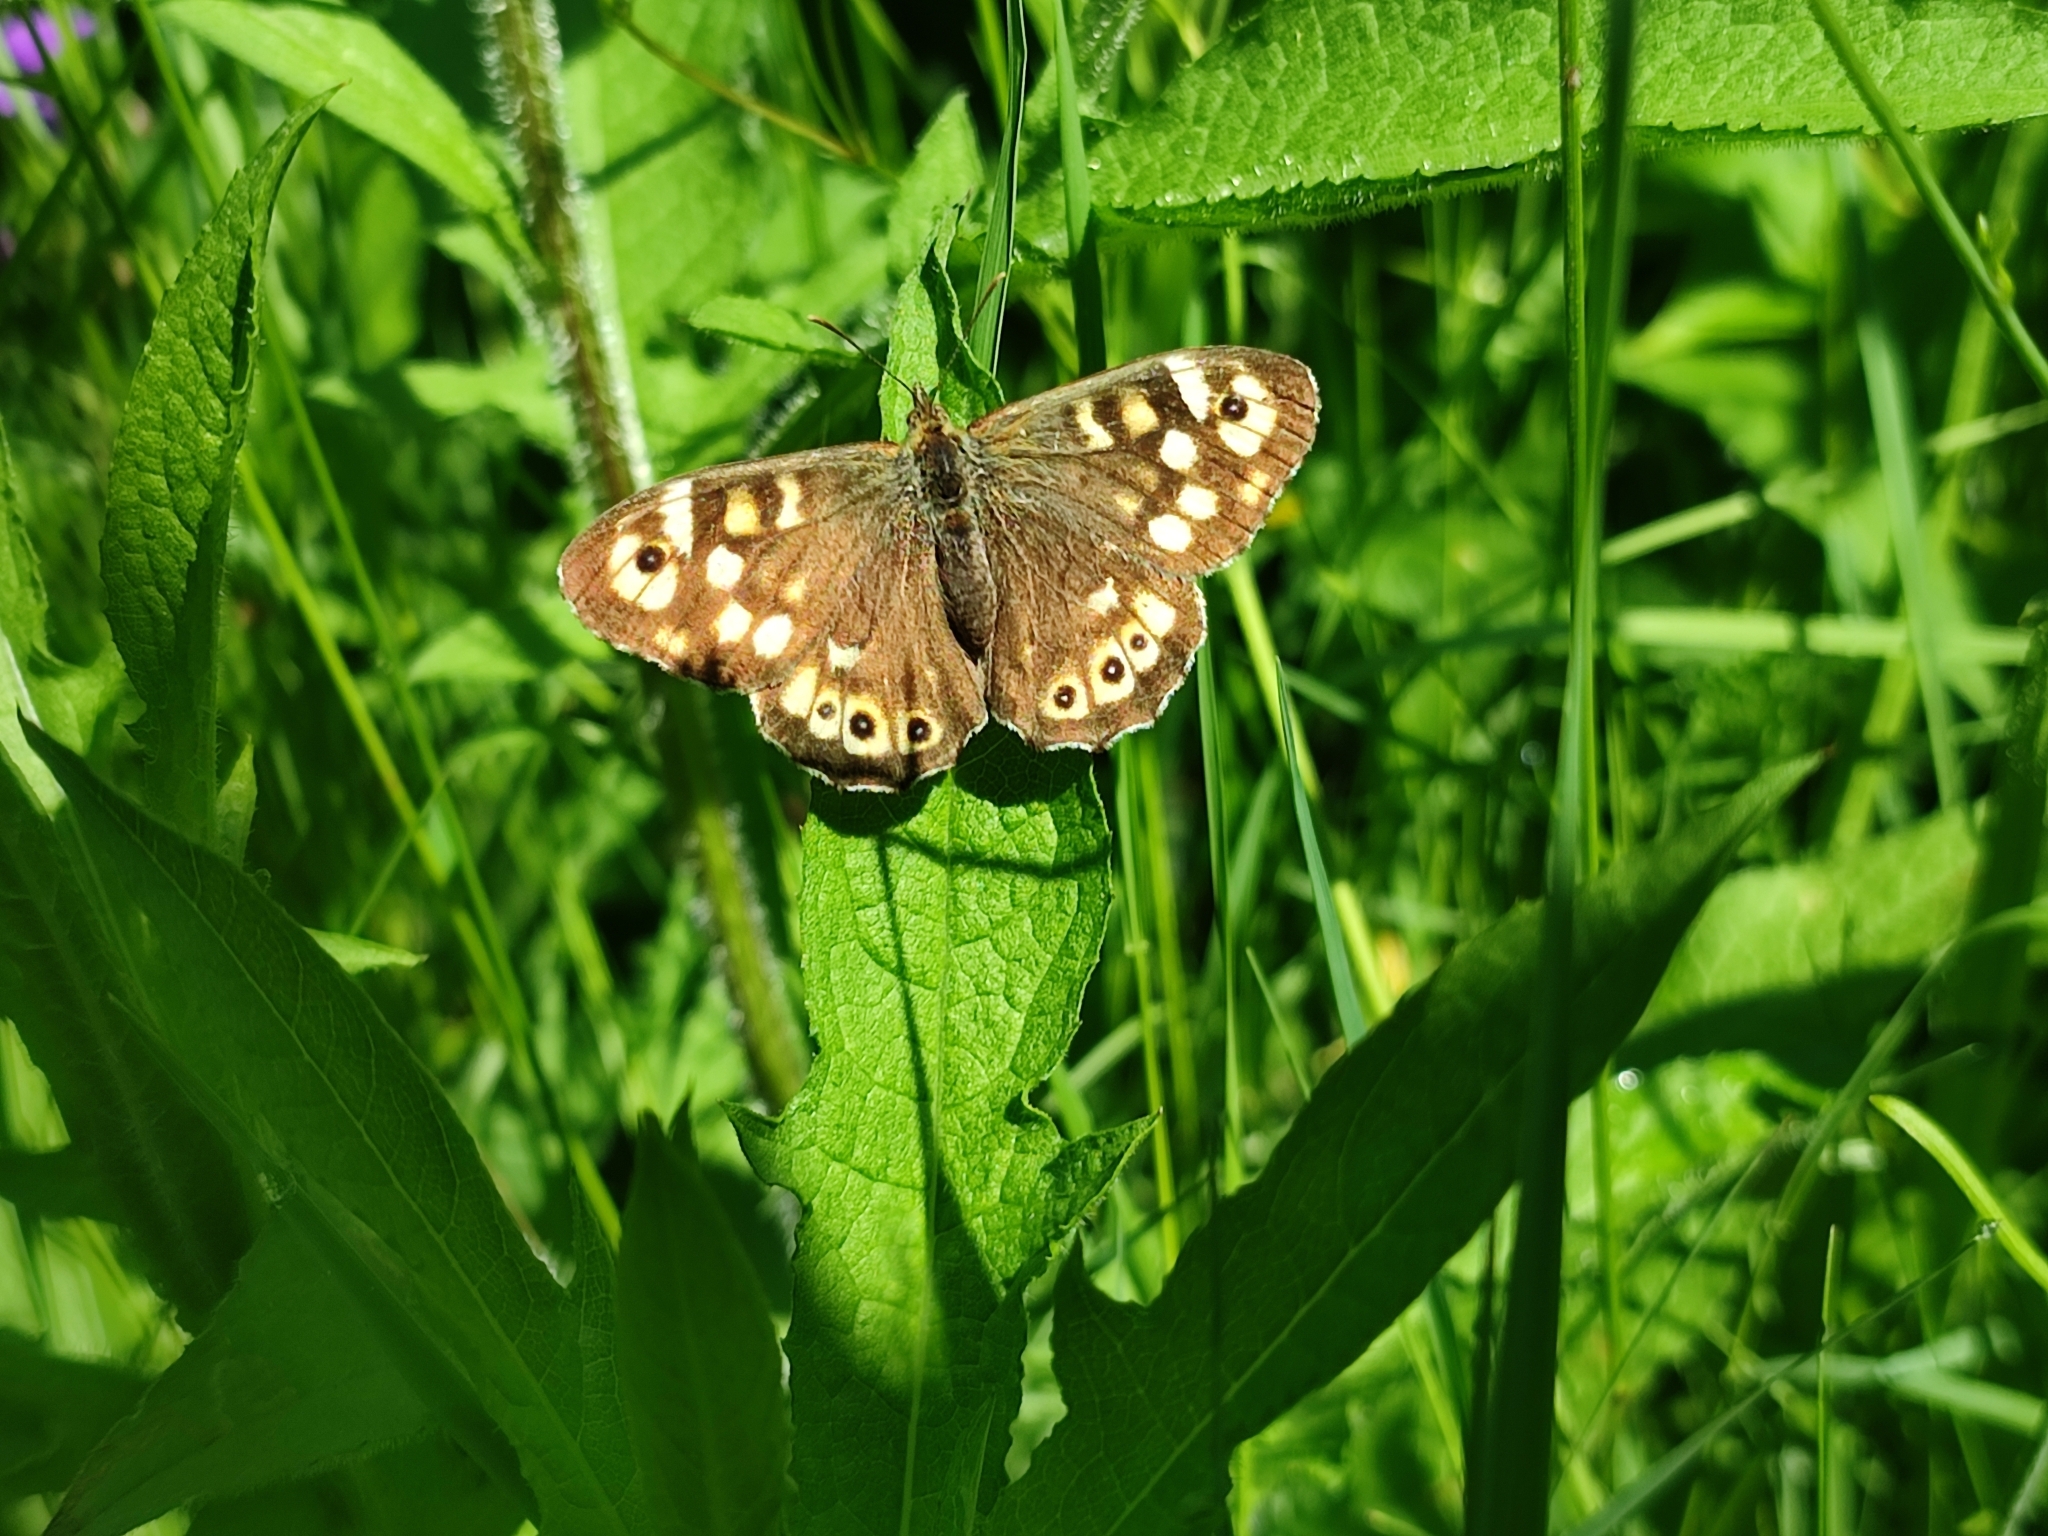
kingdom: Animalia
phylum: Arthropoda
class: Insecta
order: Lepidoptera
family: Nymphalidae
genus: Pararge
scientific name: Pararge aegeria
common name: Speckled wood
